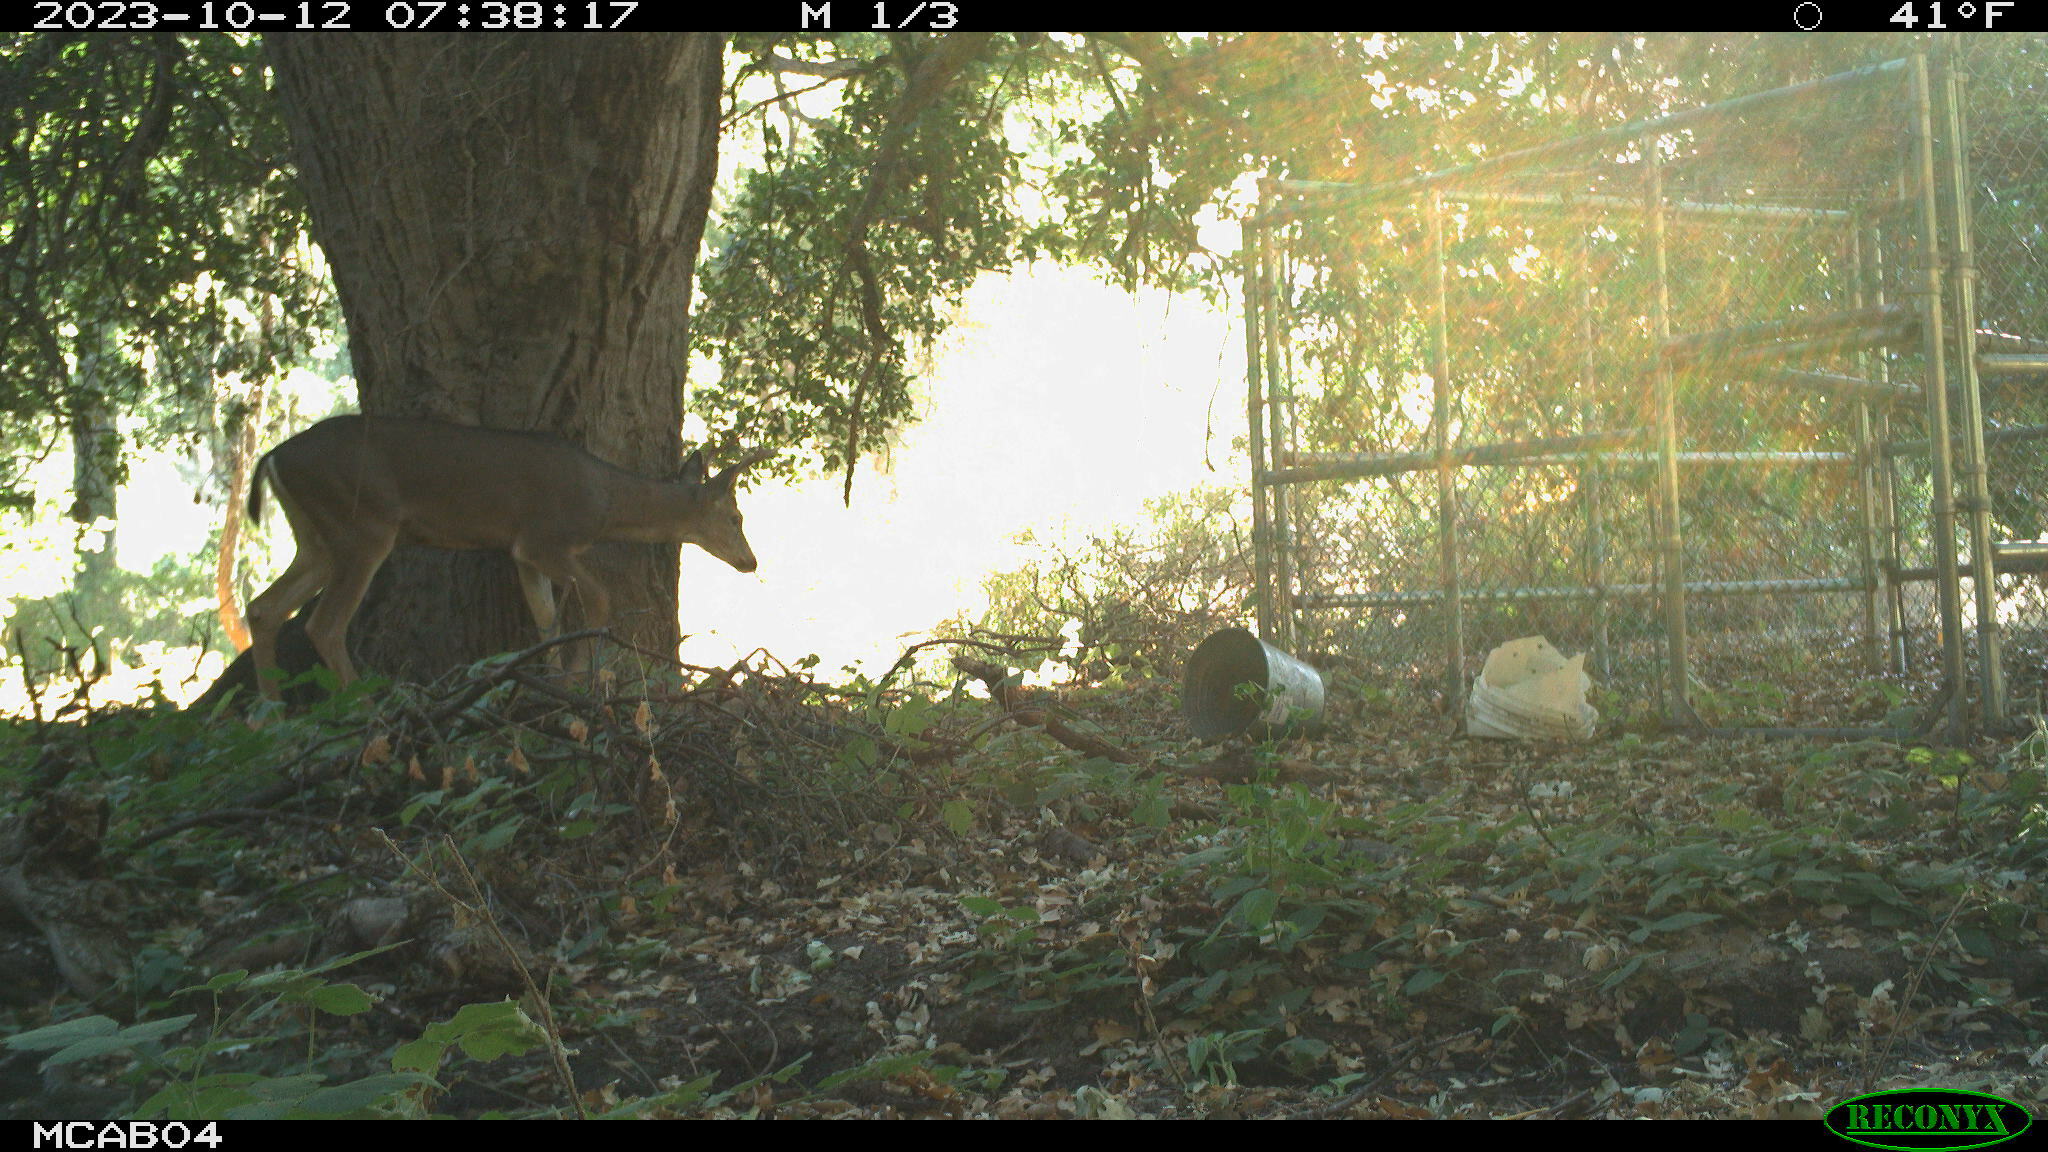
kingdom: Animalia
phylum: Chordata
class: Mammalia
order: Artiodactyla
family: Cervidae
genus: Odocoileus
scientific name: Odocoileus hemionus
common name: Mule deer
